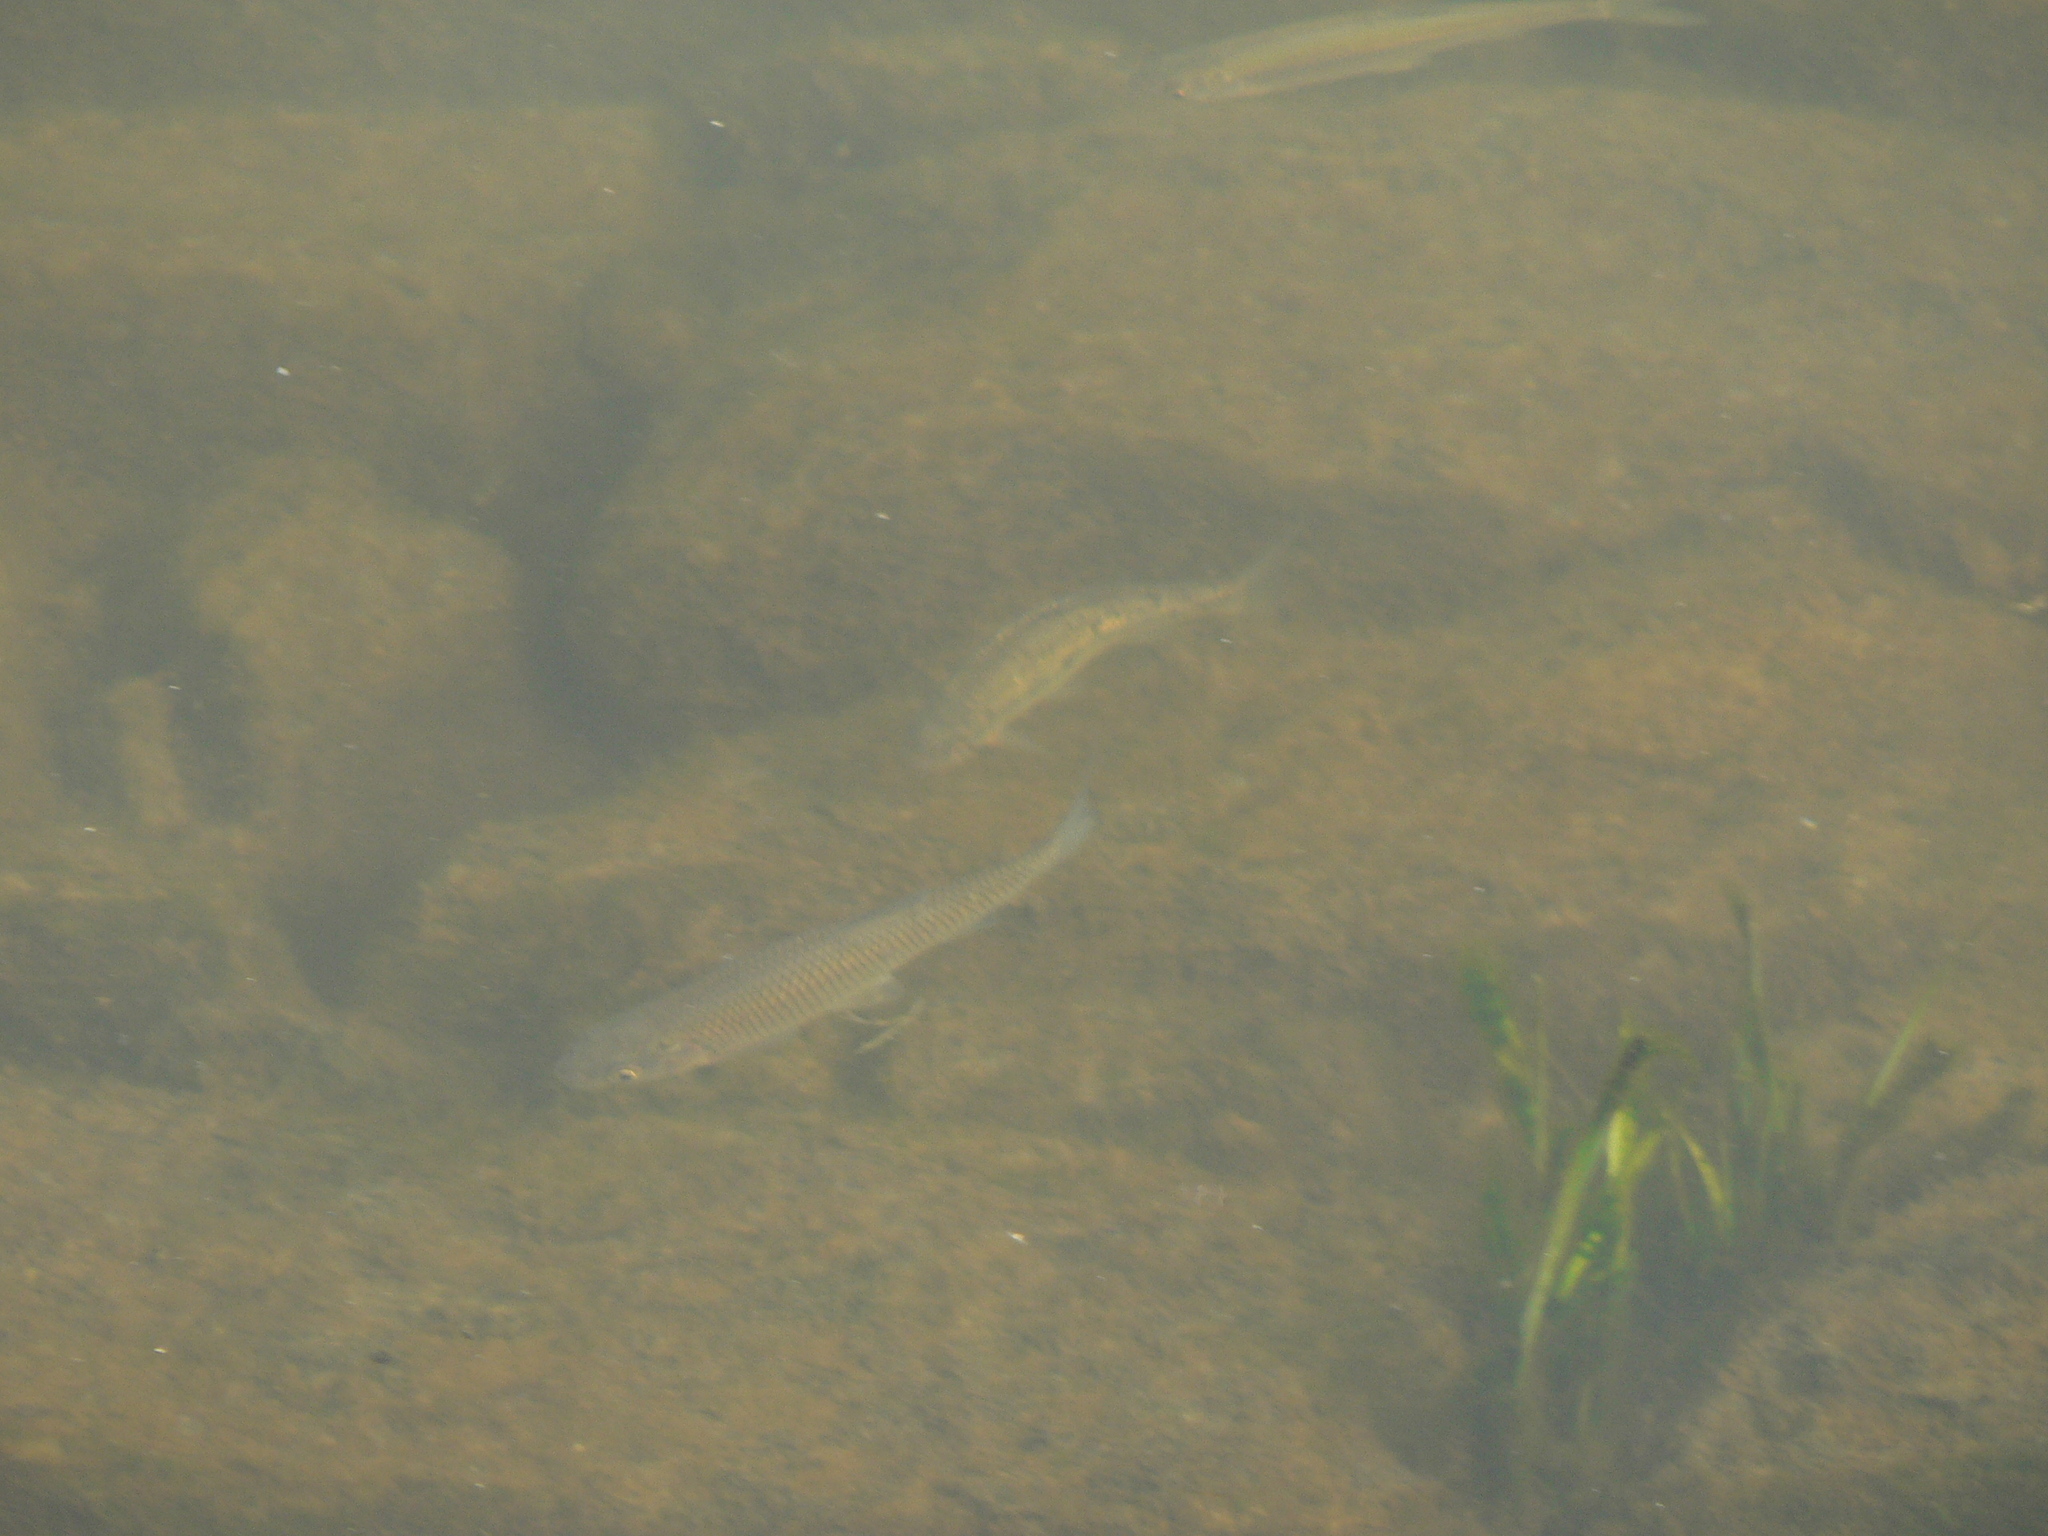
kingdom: Animalia
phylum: Chordata
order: Cypriniformes
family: Cyprinidae
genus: Squalius
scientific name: Squalius squalus
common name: Italian chub
